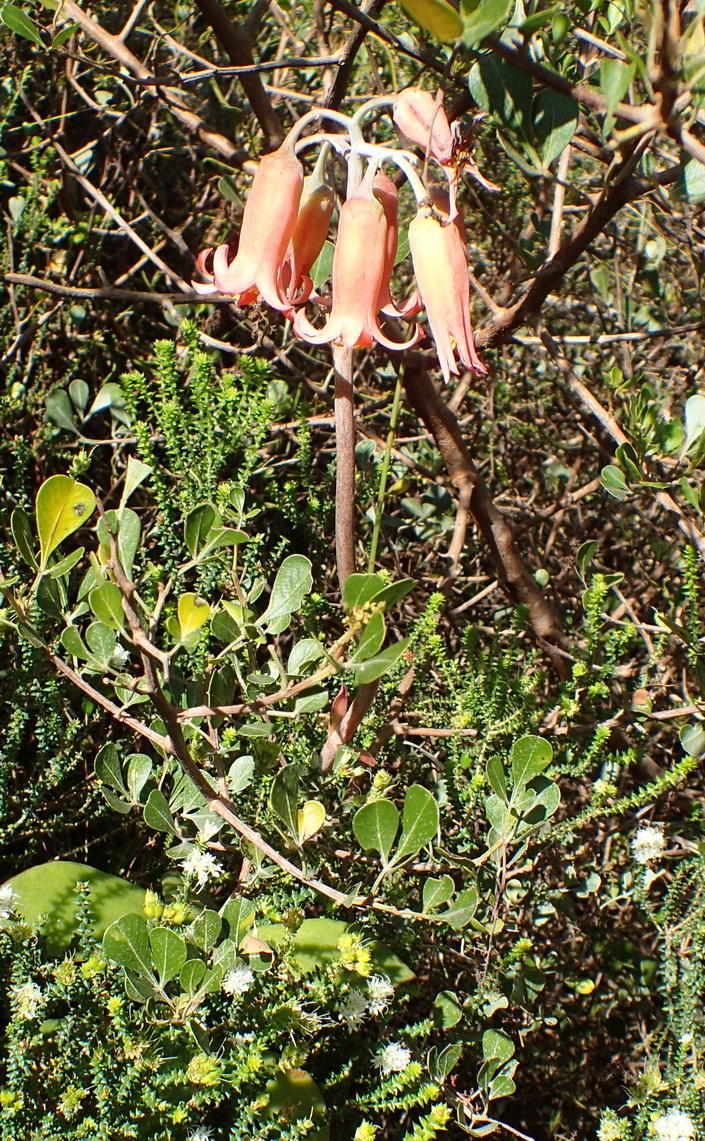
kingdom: Plantae
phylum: Tracheophyta
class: Magnoliopsida
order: Saxifragales
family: Crassulaceae
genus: Cotyledon
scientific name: Cotyledon orbiculata
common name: Pig's ear
